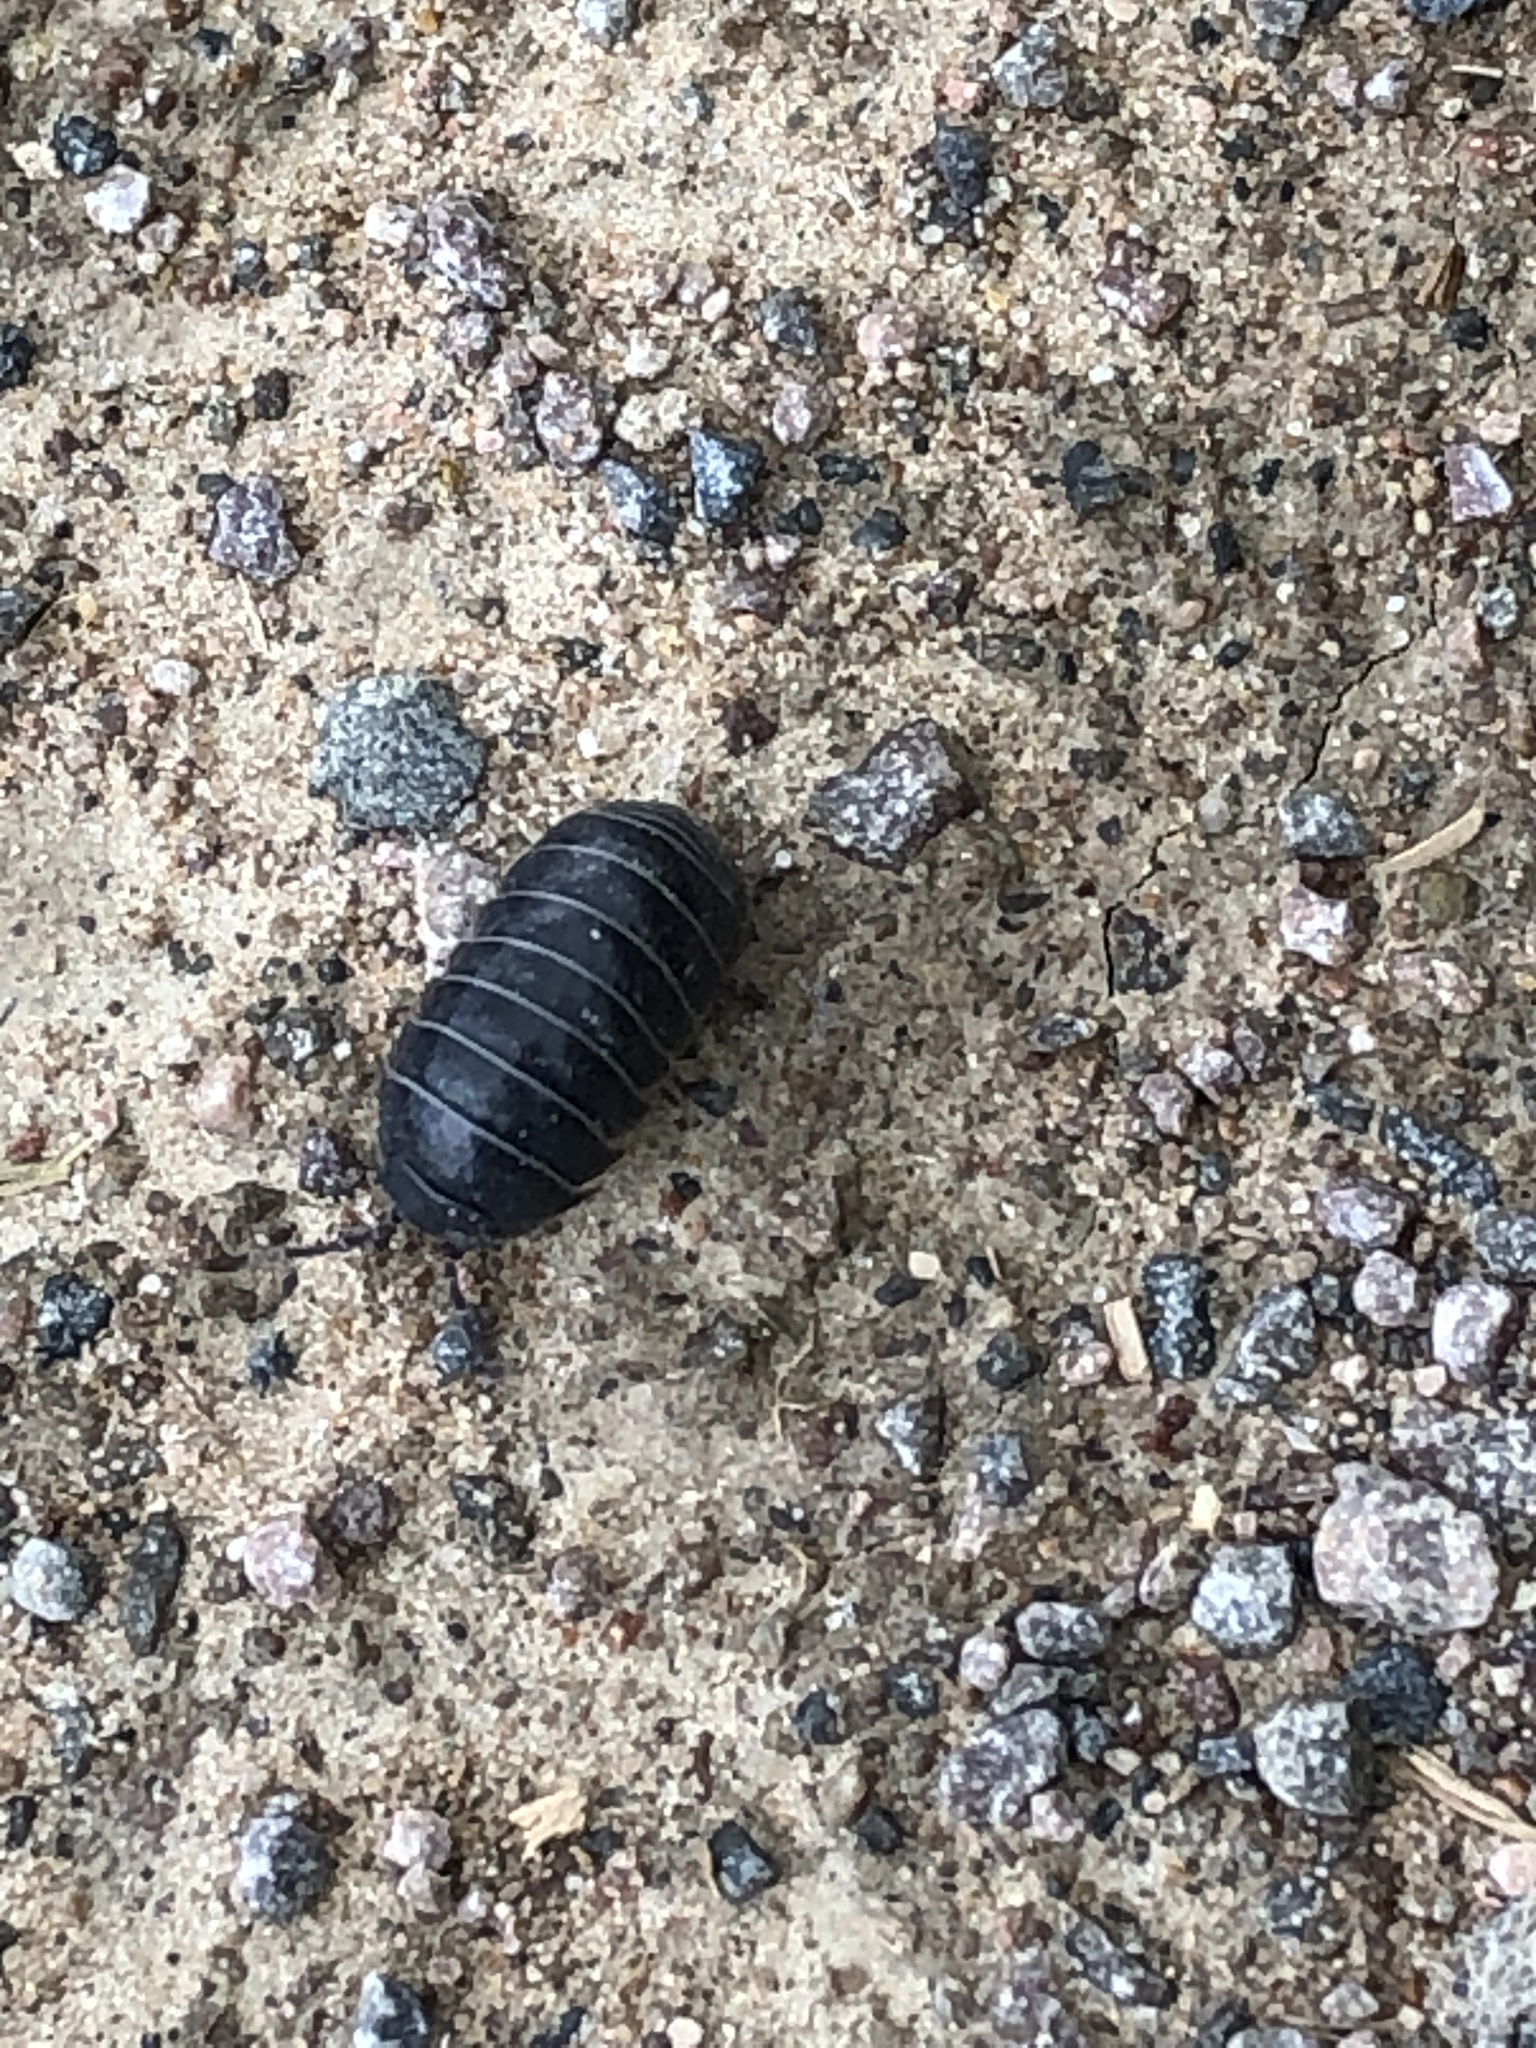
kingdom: Animalia
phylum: Arthropoda
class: Malacostraca
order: Isopoda
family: Armadillidiidae
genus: Armadillidium
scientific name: Armadillidium vulgare
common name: Common pill woodlouse
